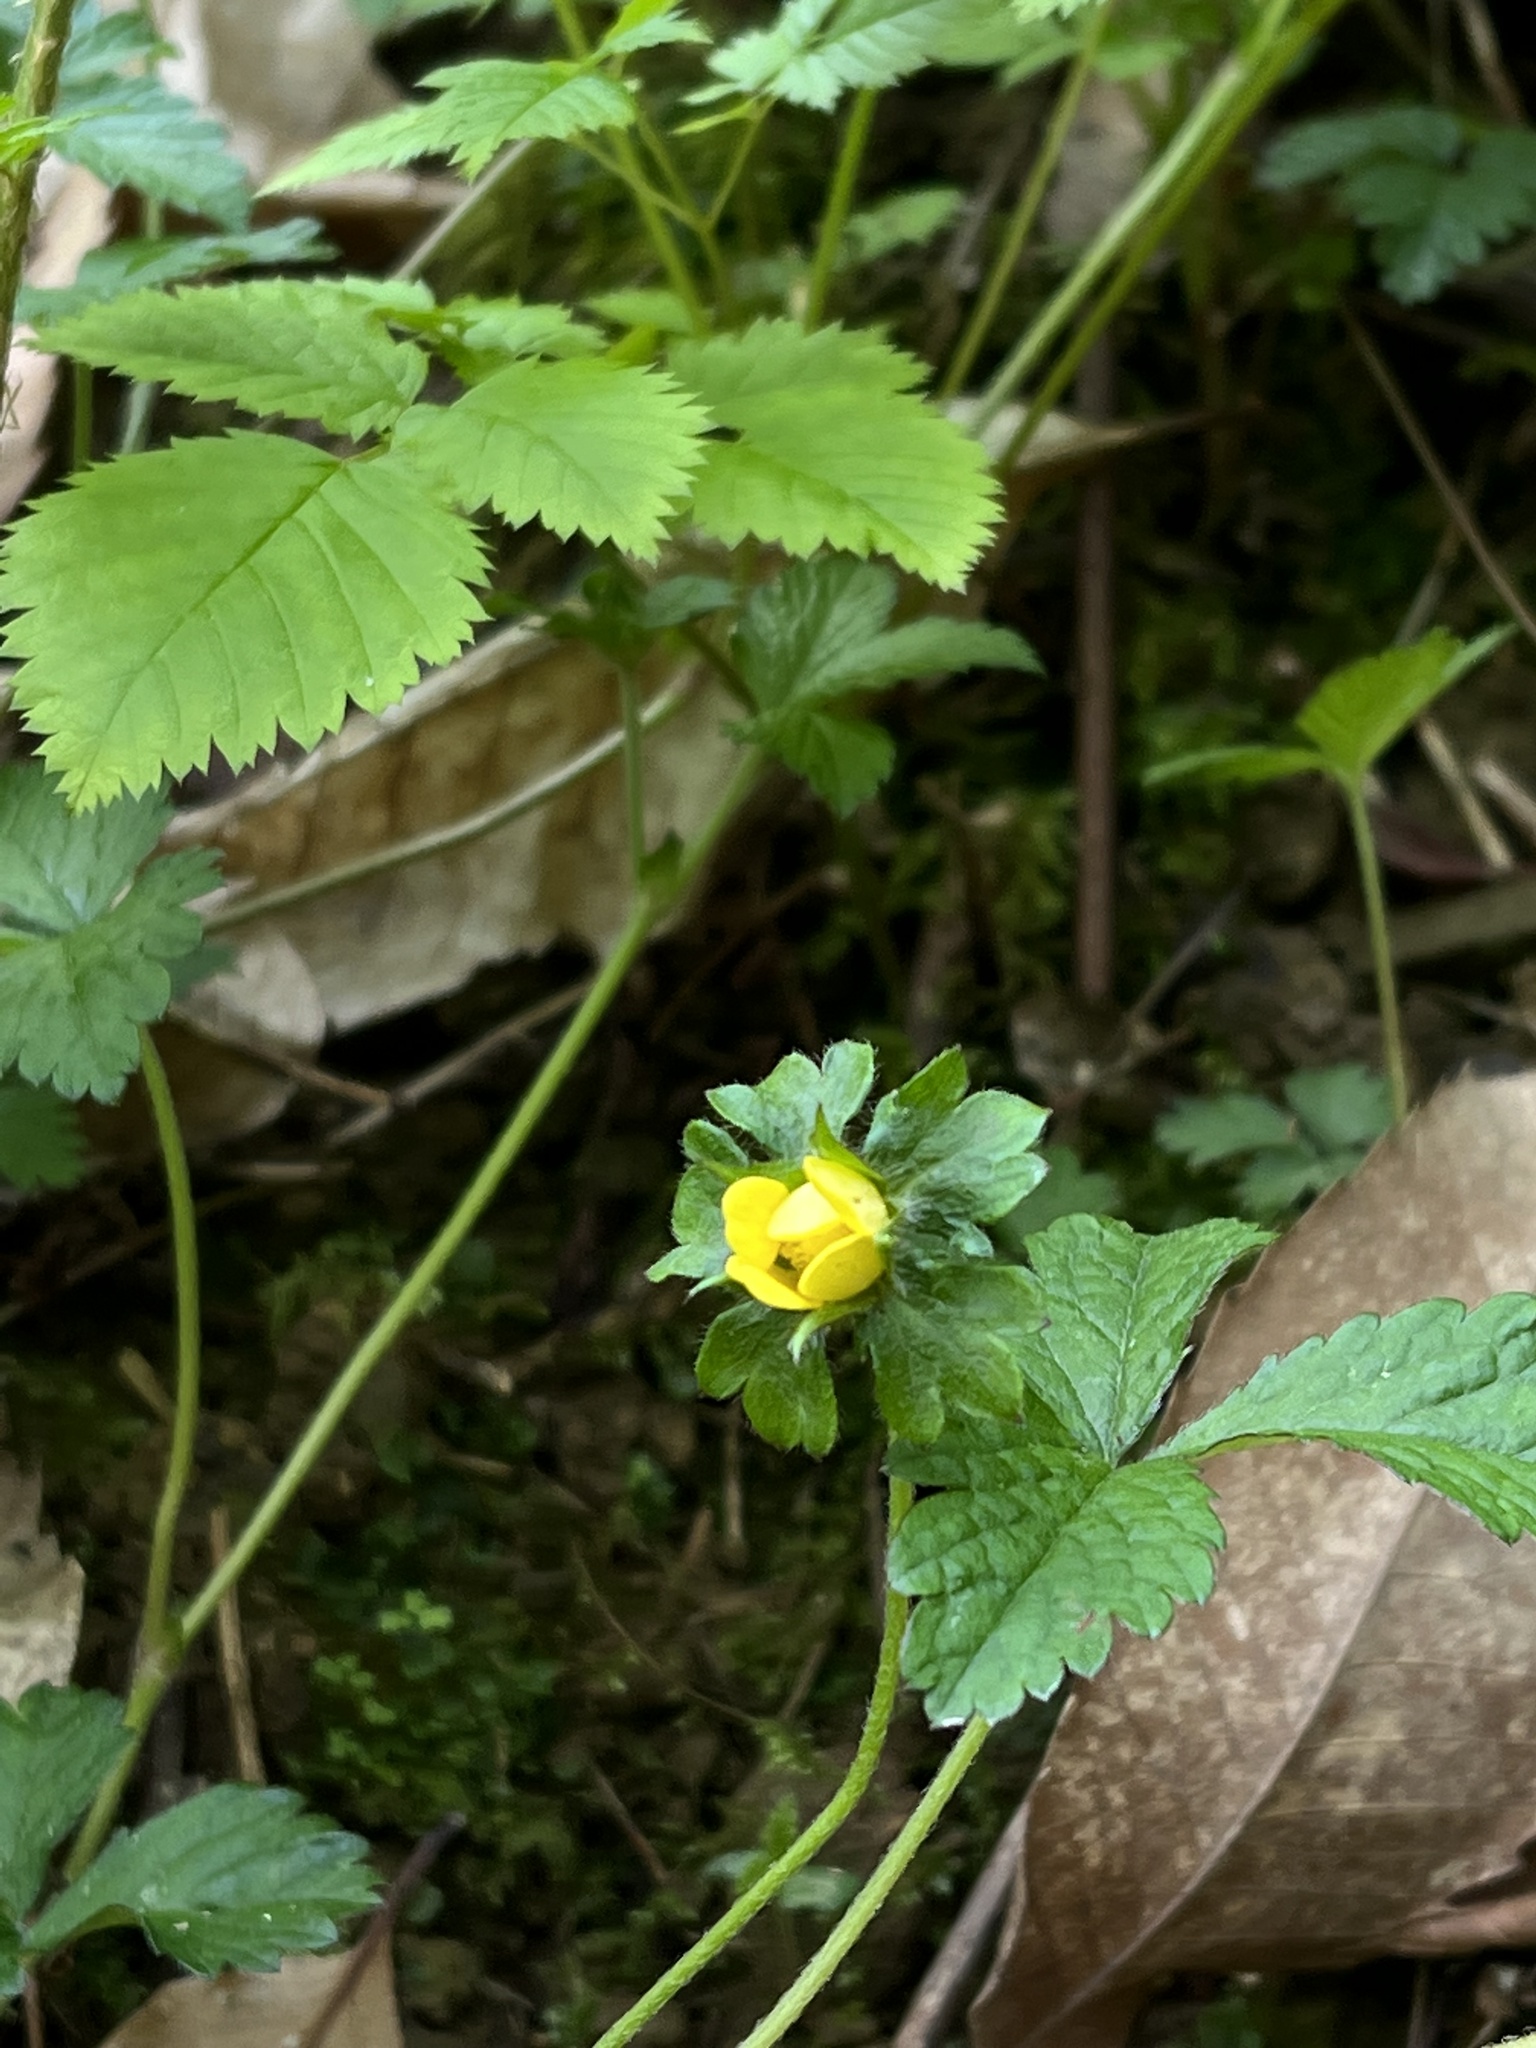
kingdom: Plantae
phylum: Tracheophyta
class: Magnoliopsida
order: Rosales
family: Rosaceae
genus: Potentilla
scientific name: Potentilla indica
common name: Yellow-flowered strawberry
